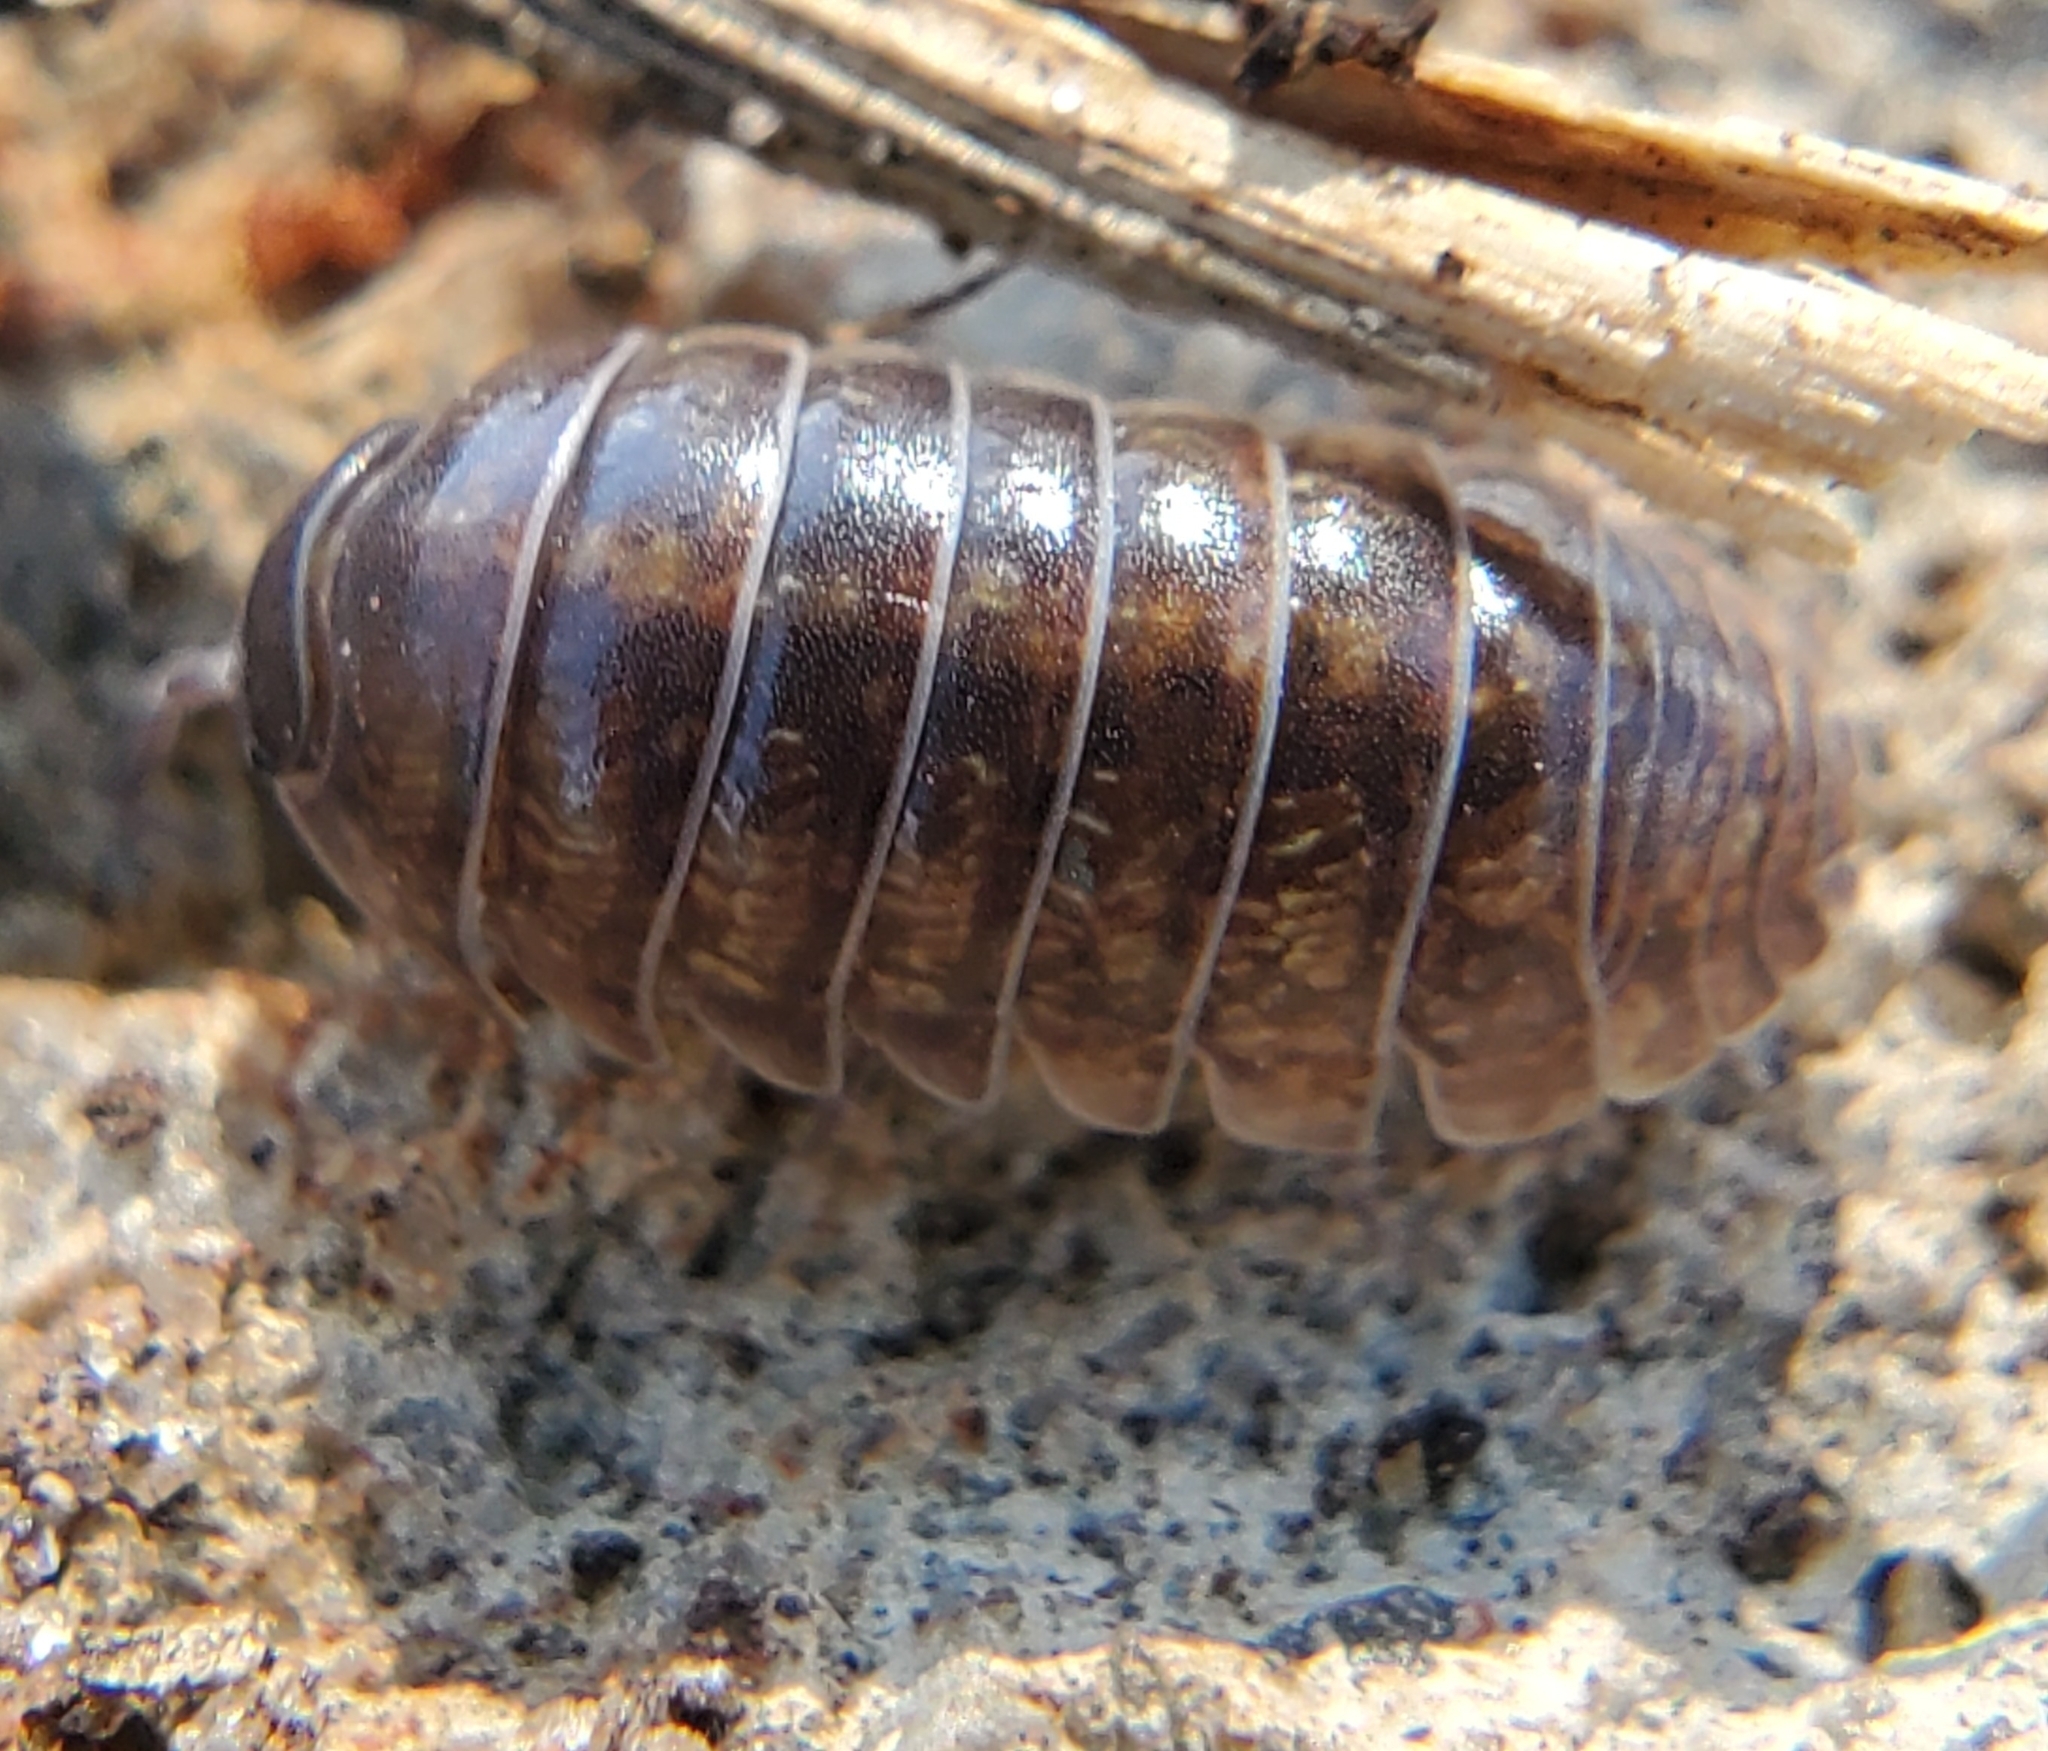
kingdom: Animalia
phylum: Arthropoda
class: Malacostraca
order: Isopoda
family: Armadillidiidae
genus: Armadillidium
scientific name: Armadillidium vulgare
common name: Common pill woodlouse
